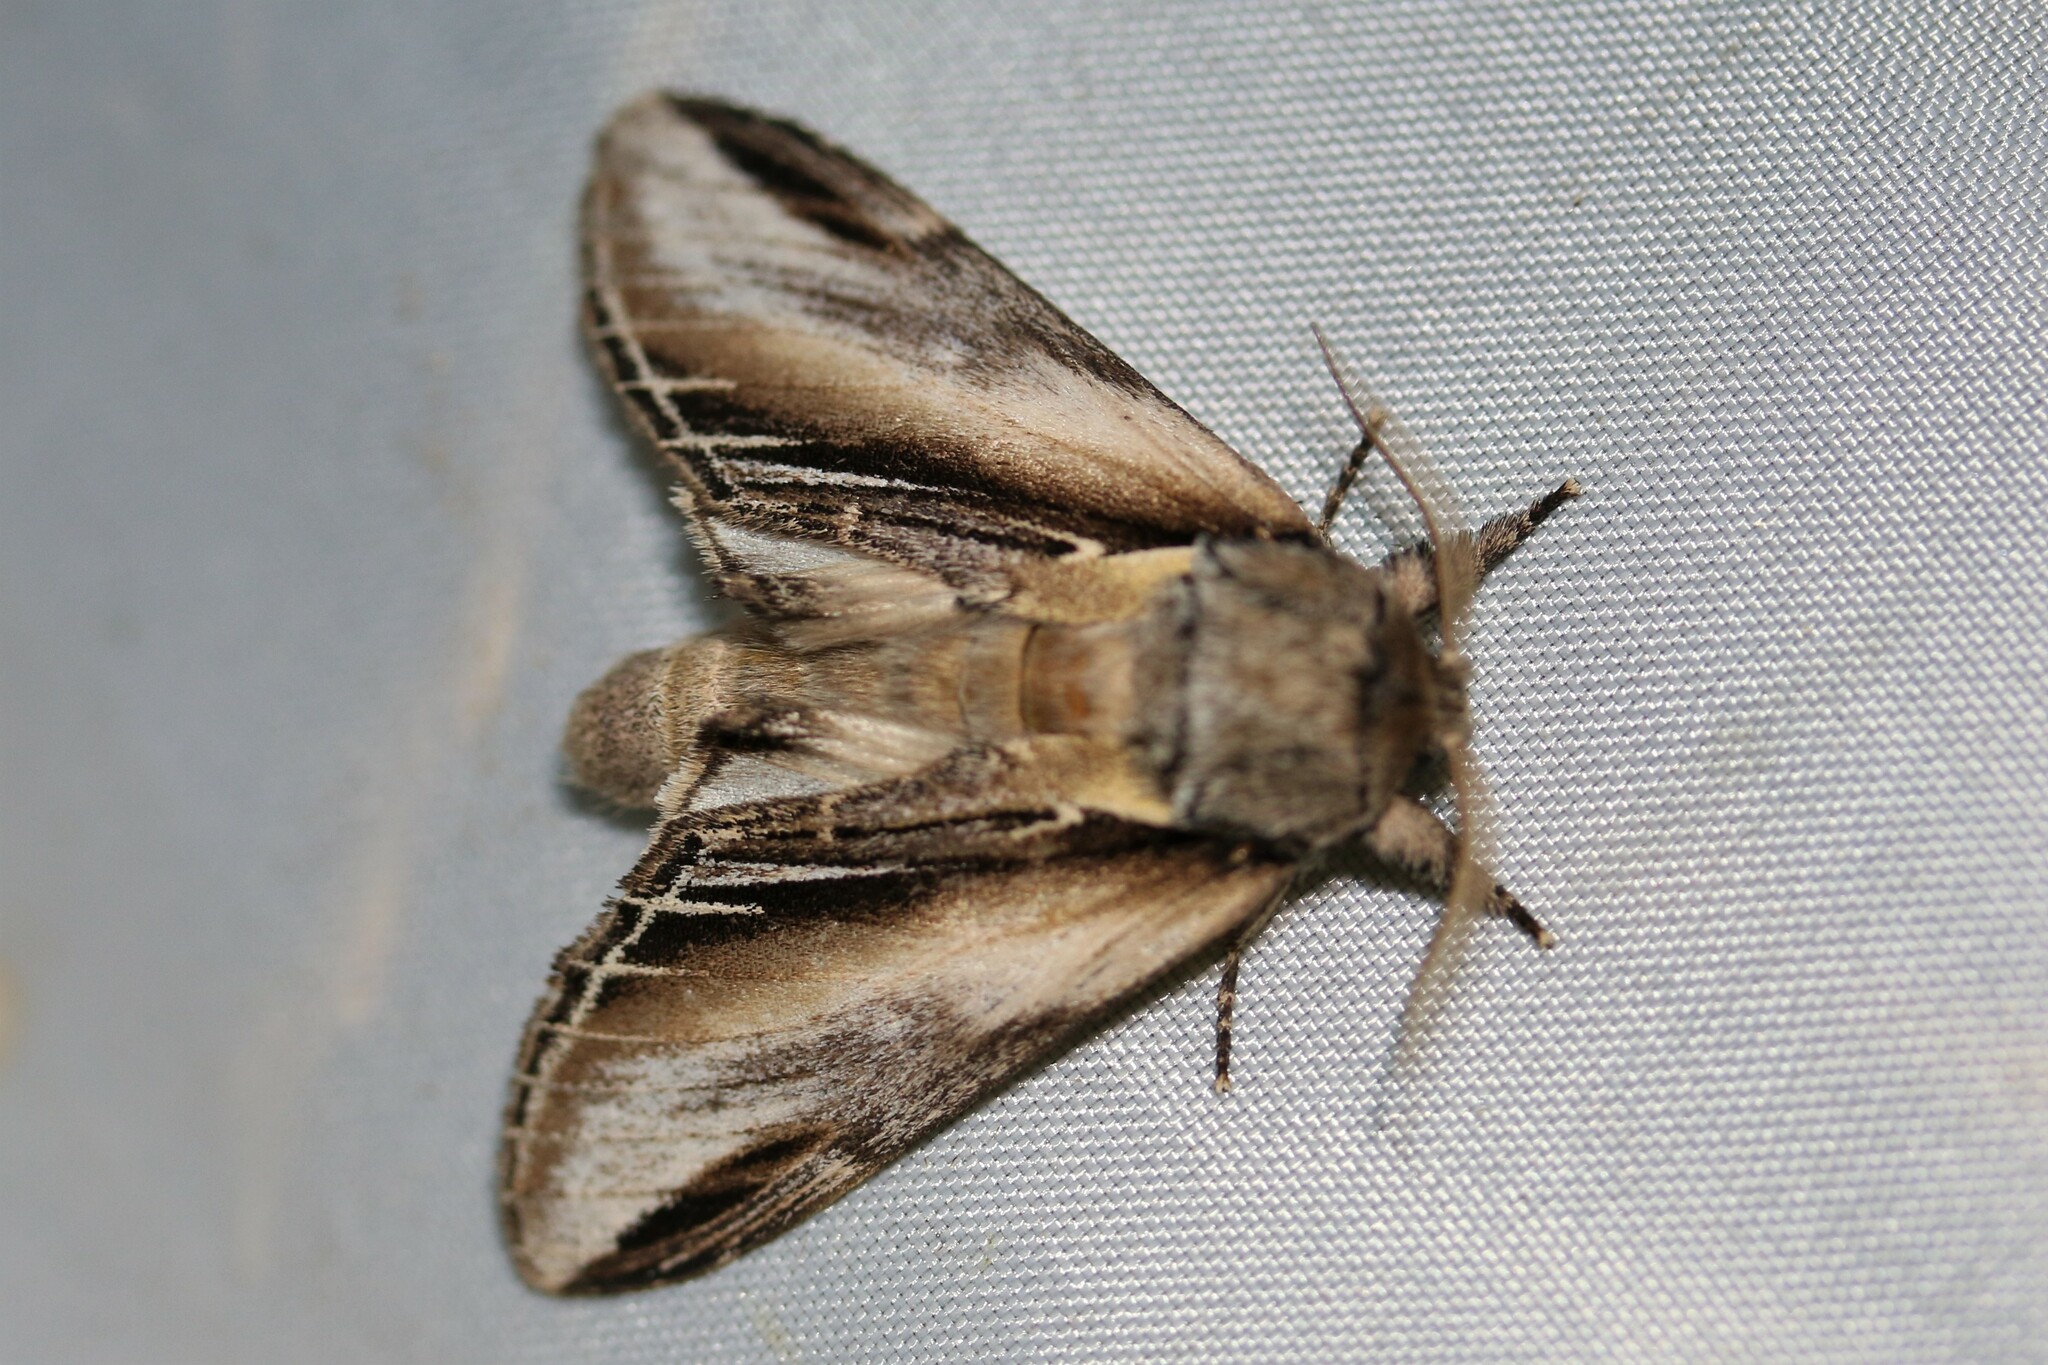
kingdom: Animalia
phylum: Arthropoda
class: Insecta
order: Lepidoptera
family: Notodontidae
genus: Pheosia
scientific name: Pheosia tremula
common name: Swallow prominent
